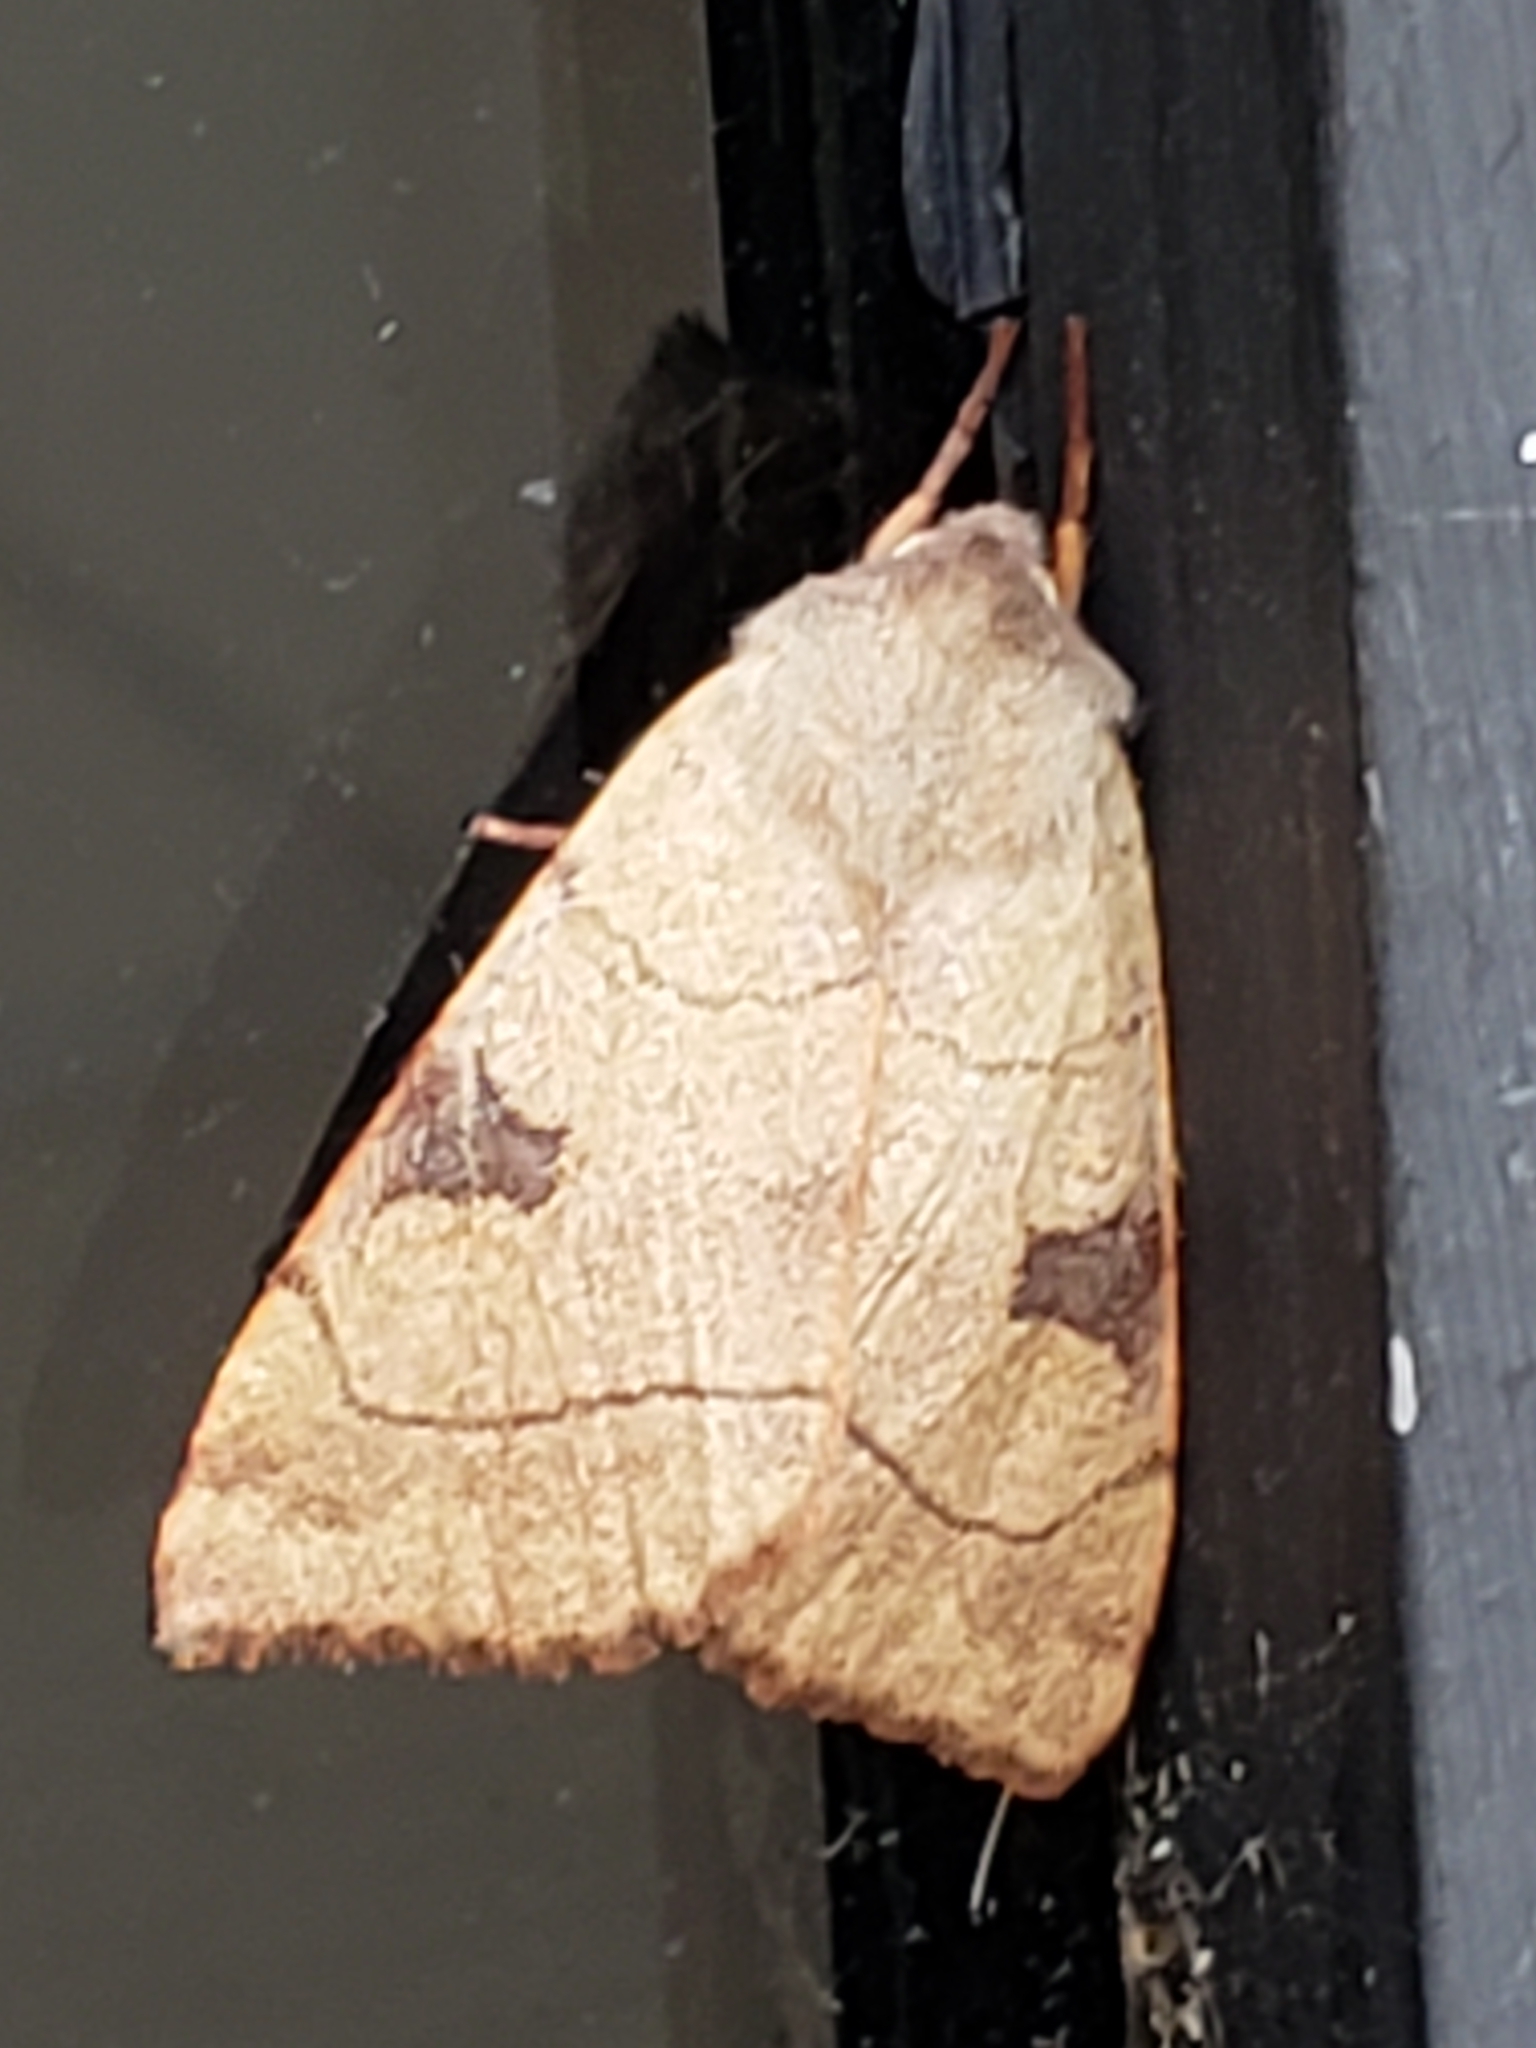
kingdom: Animalia
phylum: Arthropoda
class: Insecta
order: Lepidoptera
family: Noctuidae
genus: Choephora
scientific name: Choephora fungorum
